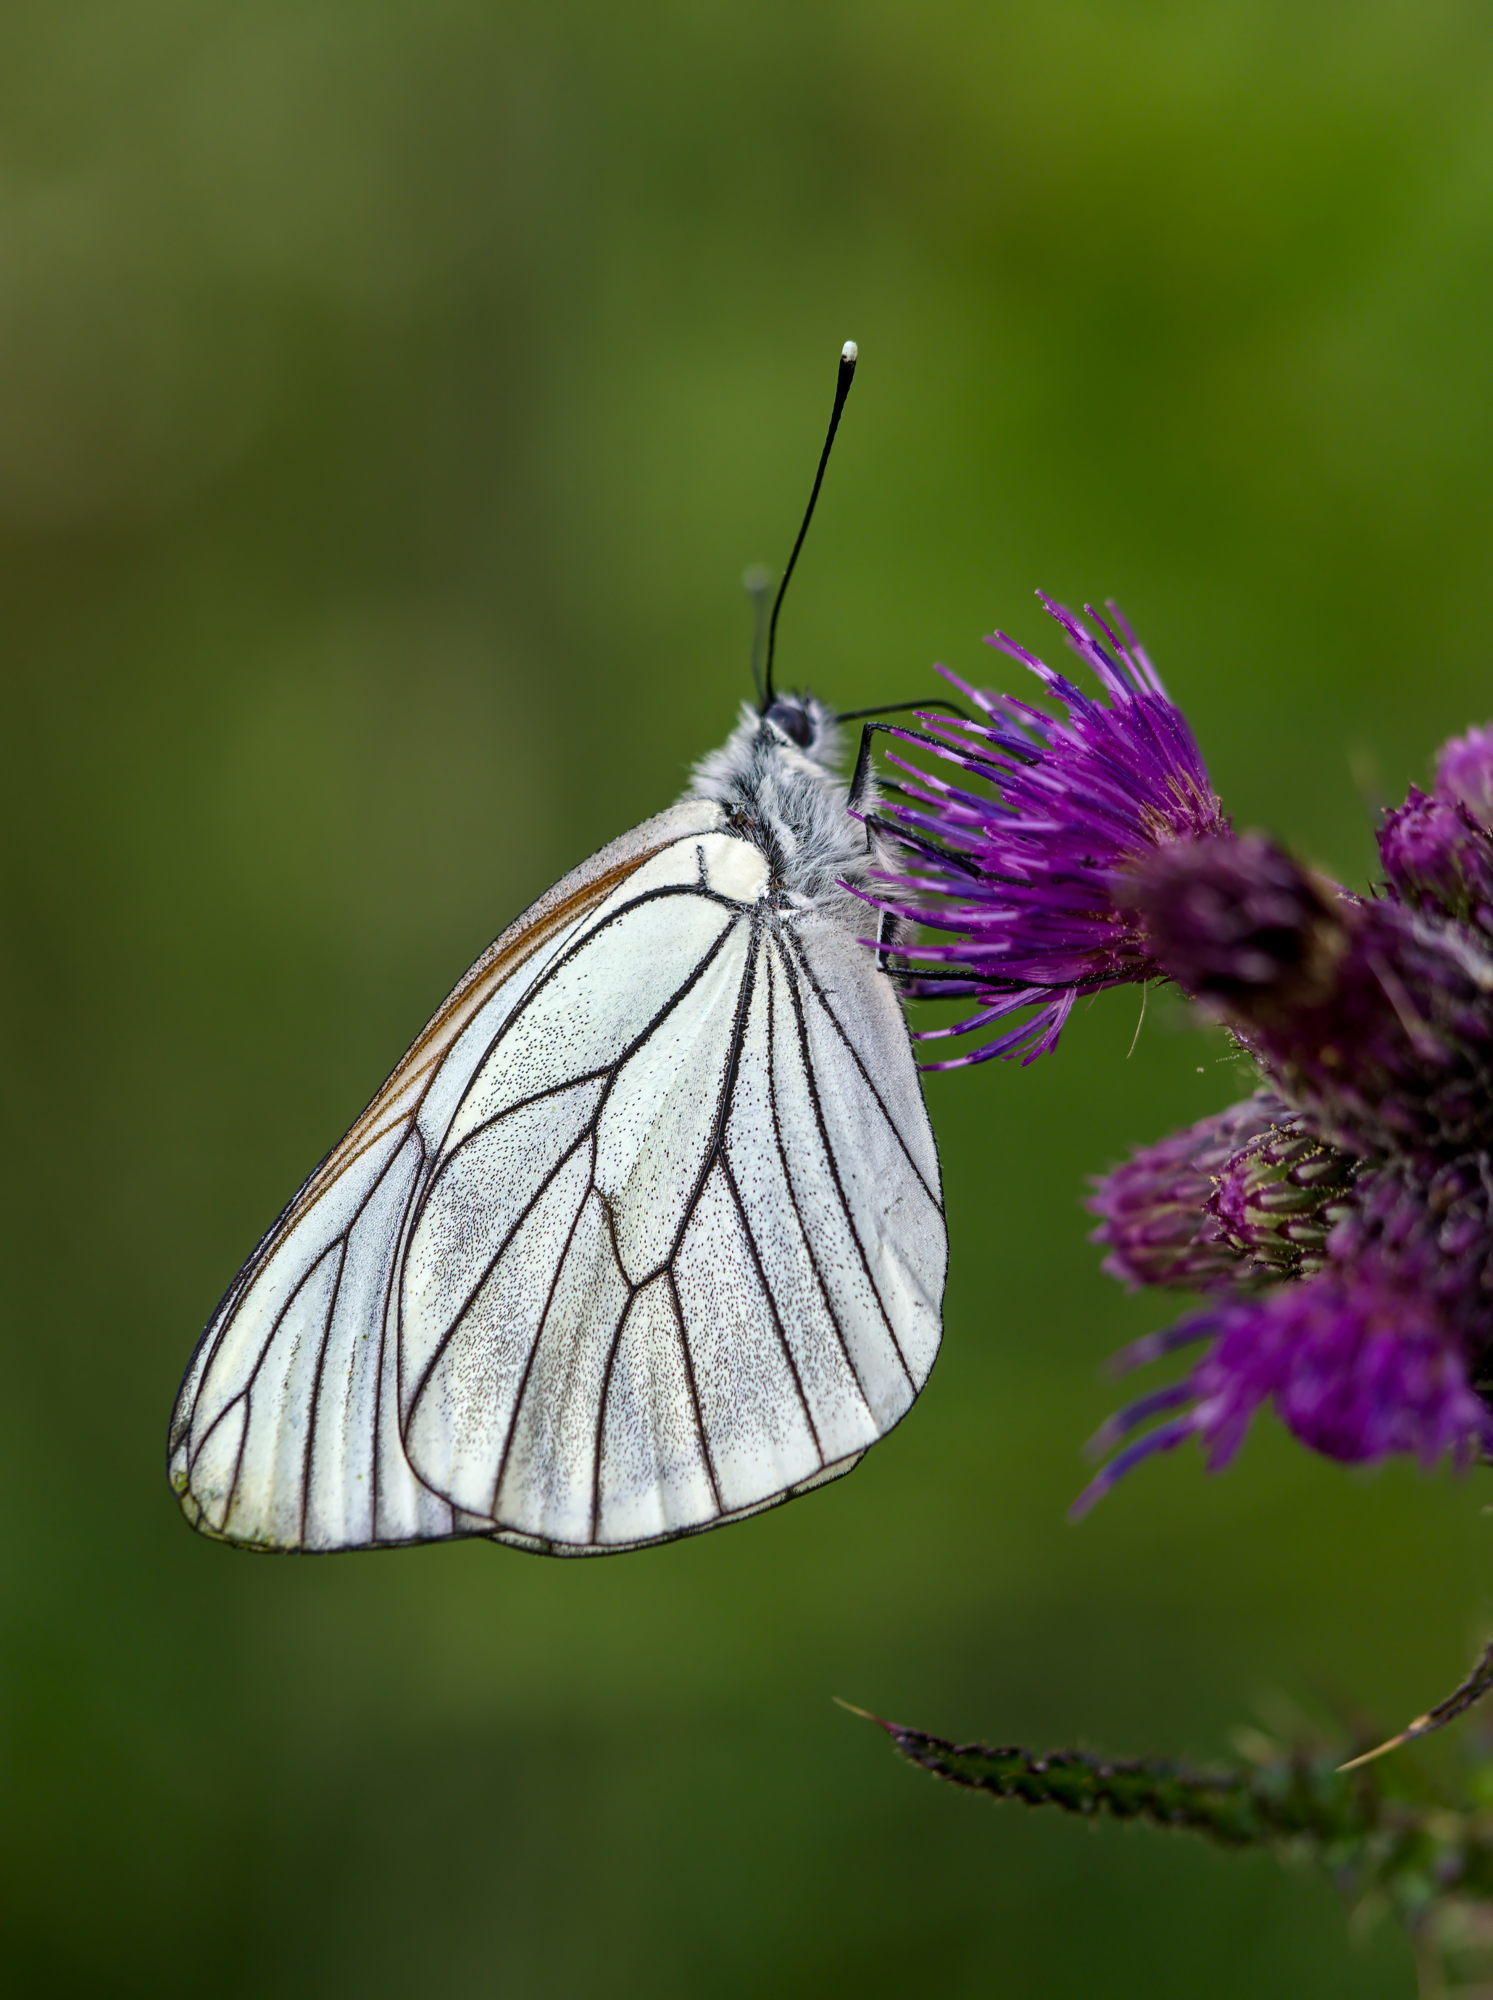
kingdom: Animalia
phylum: Arthropoda
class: Insecta
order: Lepidoptera
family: Pieridae
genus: Aporia
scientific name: Aporia crataegi
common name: Black-veined white
